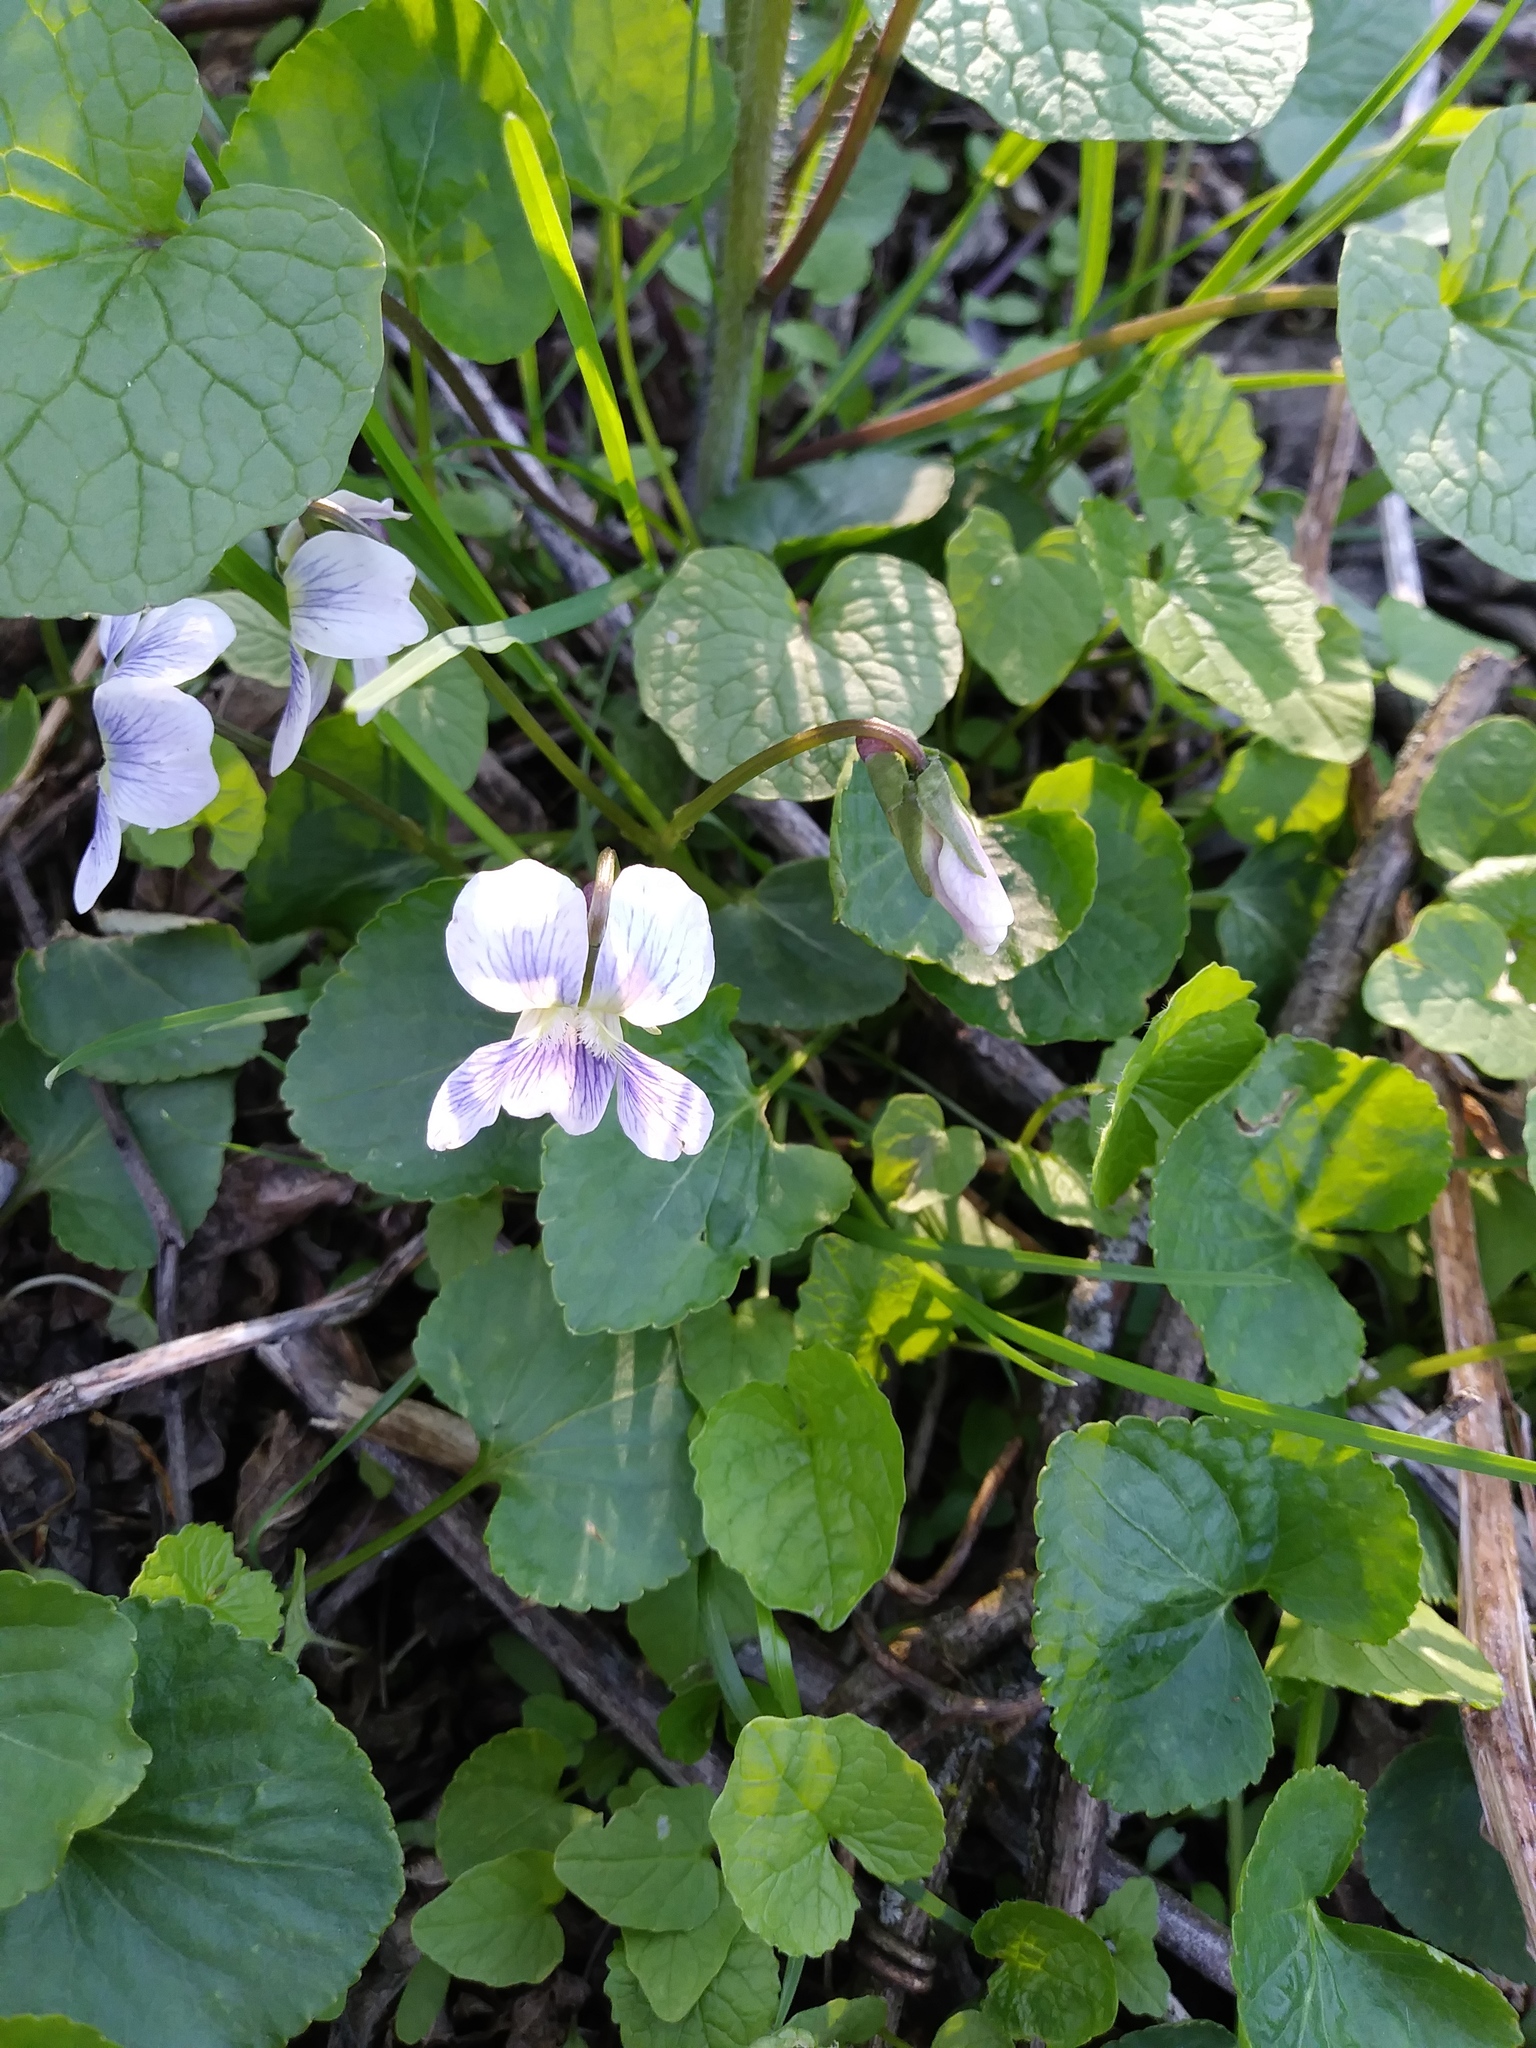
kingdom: Plantae
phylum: Tracheophyta
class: Magnoliopsida
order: Malpighiales
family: Violaceae
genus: Viola
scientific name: Viola sororia
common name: Dooryard violet
